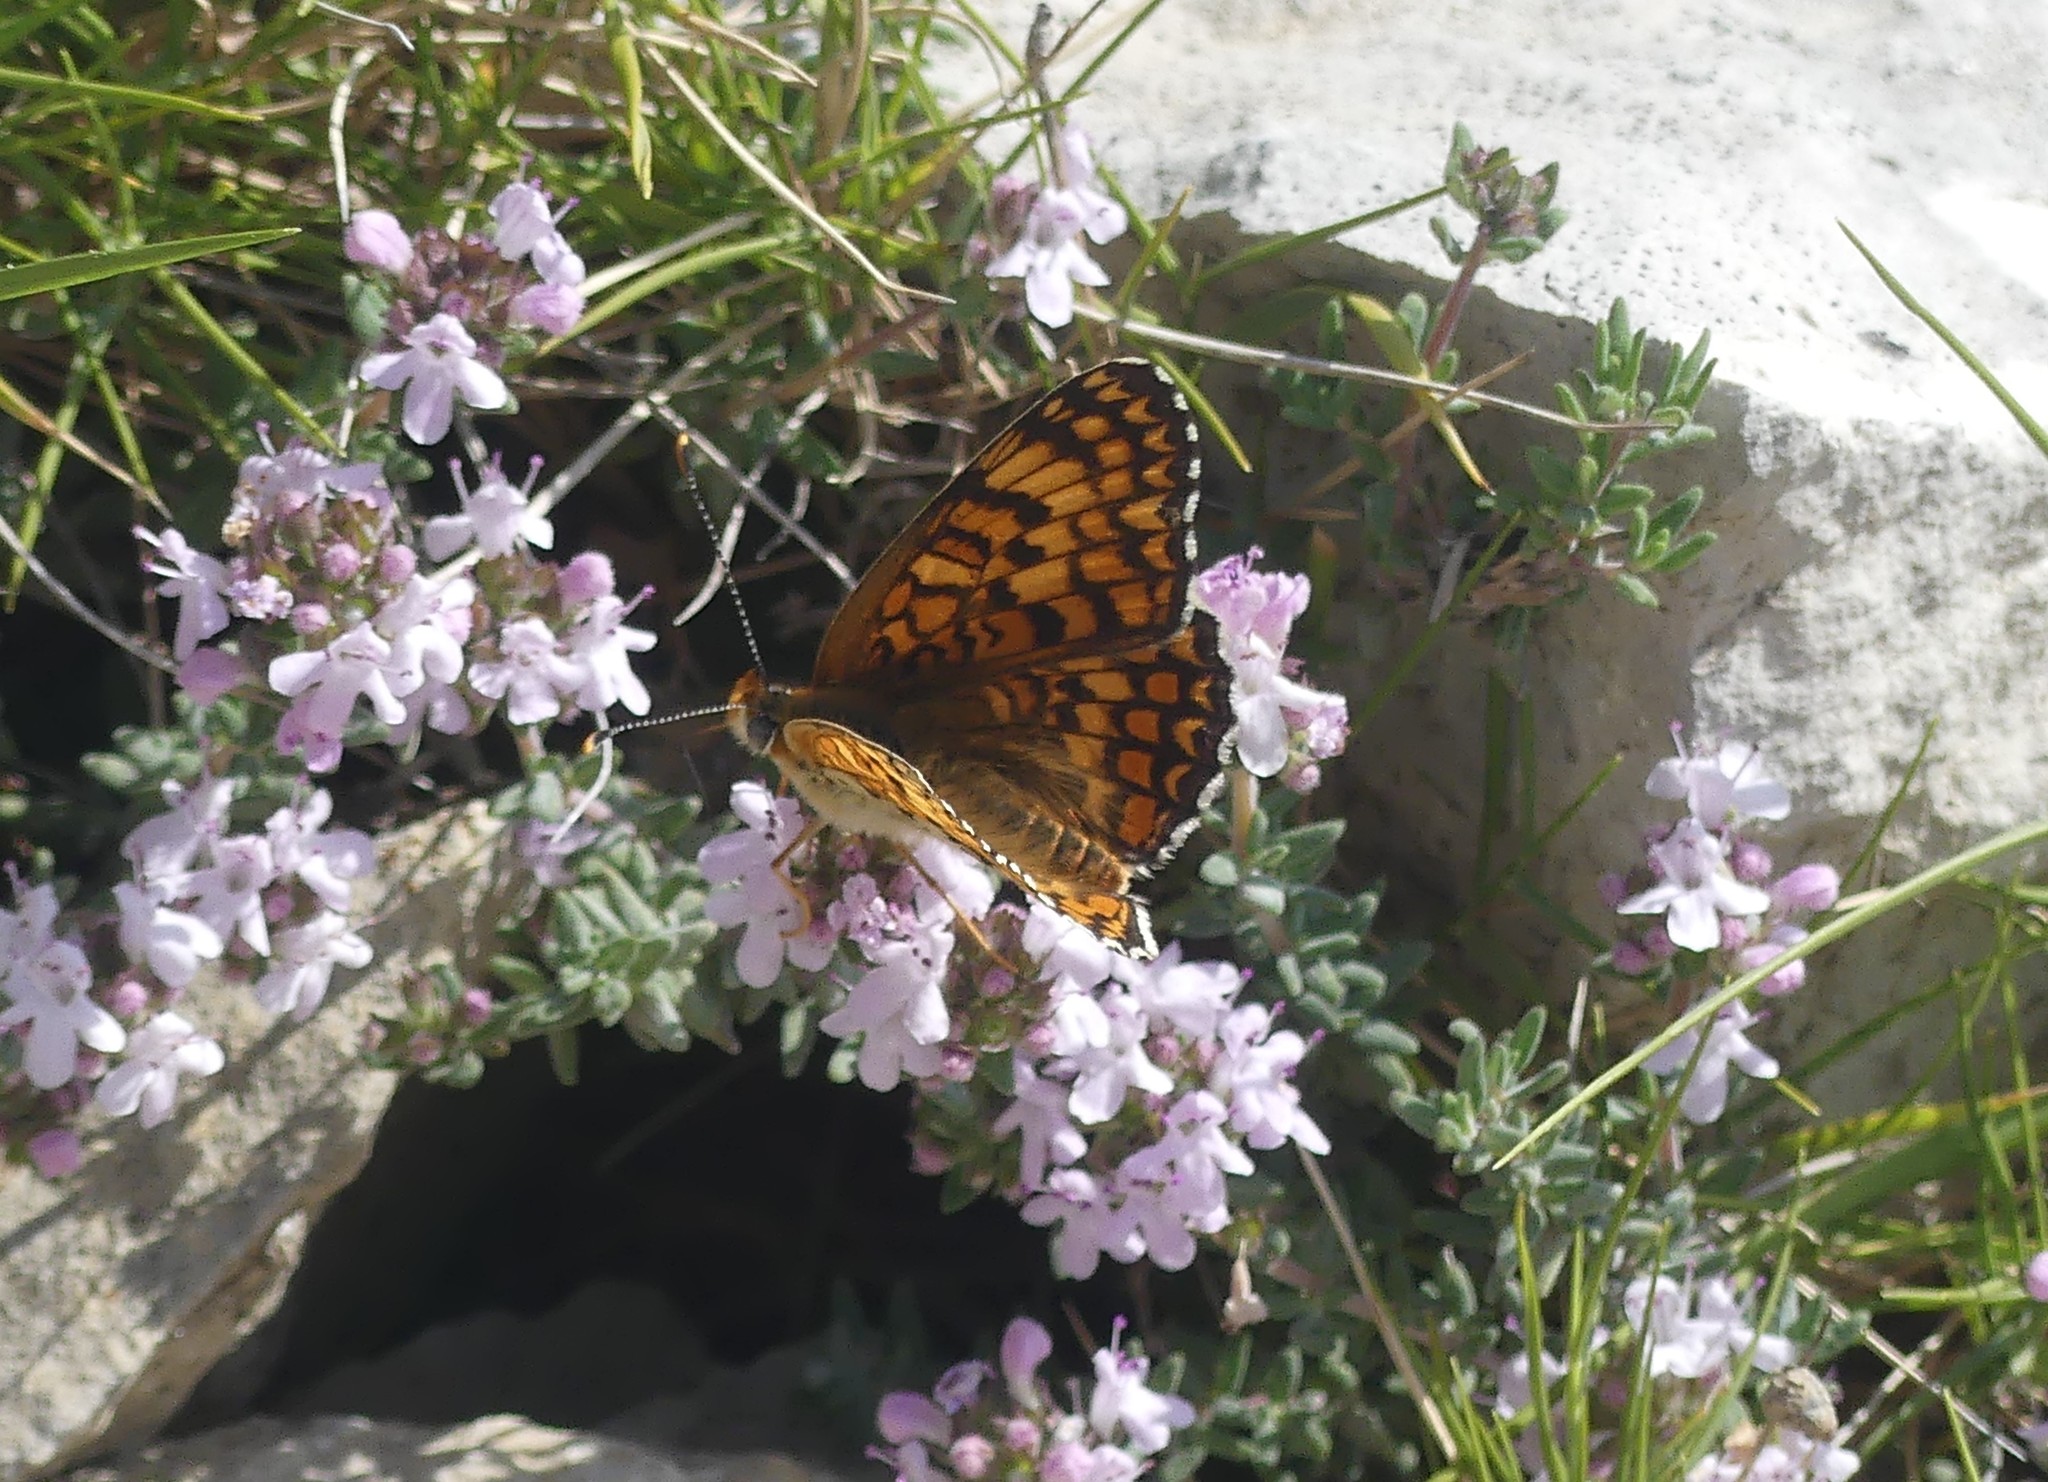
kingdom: Animalia
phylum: Arthropoda
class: Insecta
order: Lepidoptera
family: Nymphalidae
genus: Melitaea
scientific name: Melitaea phoebe
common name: Knapweed fritillary
